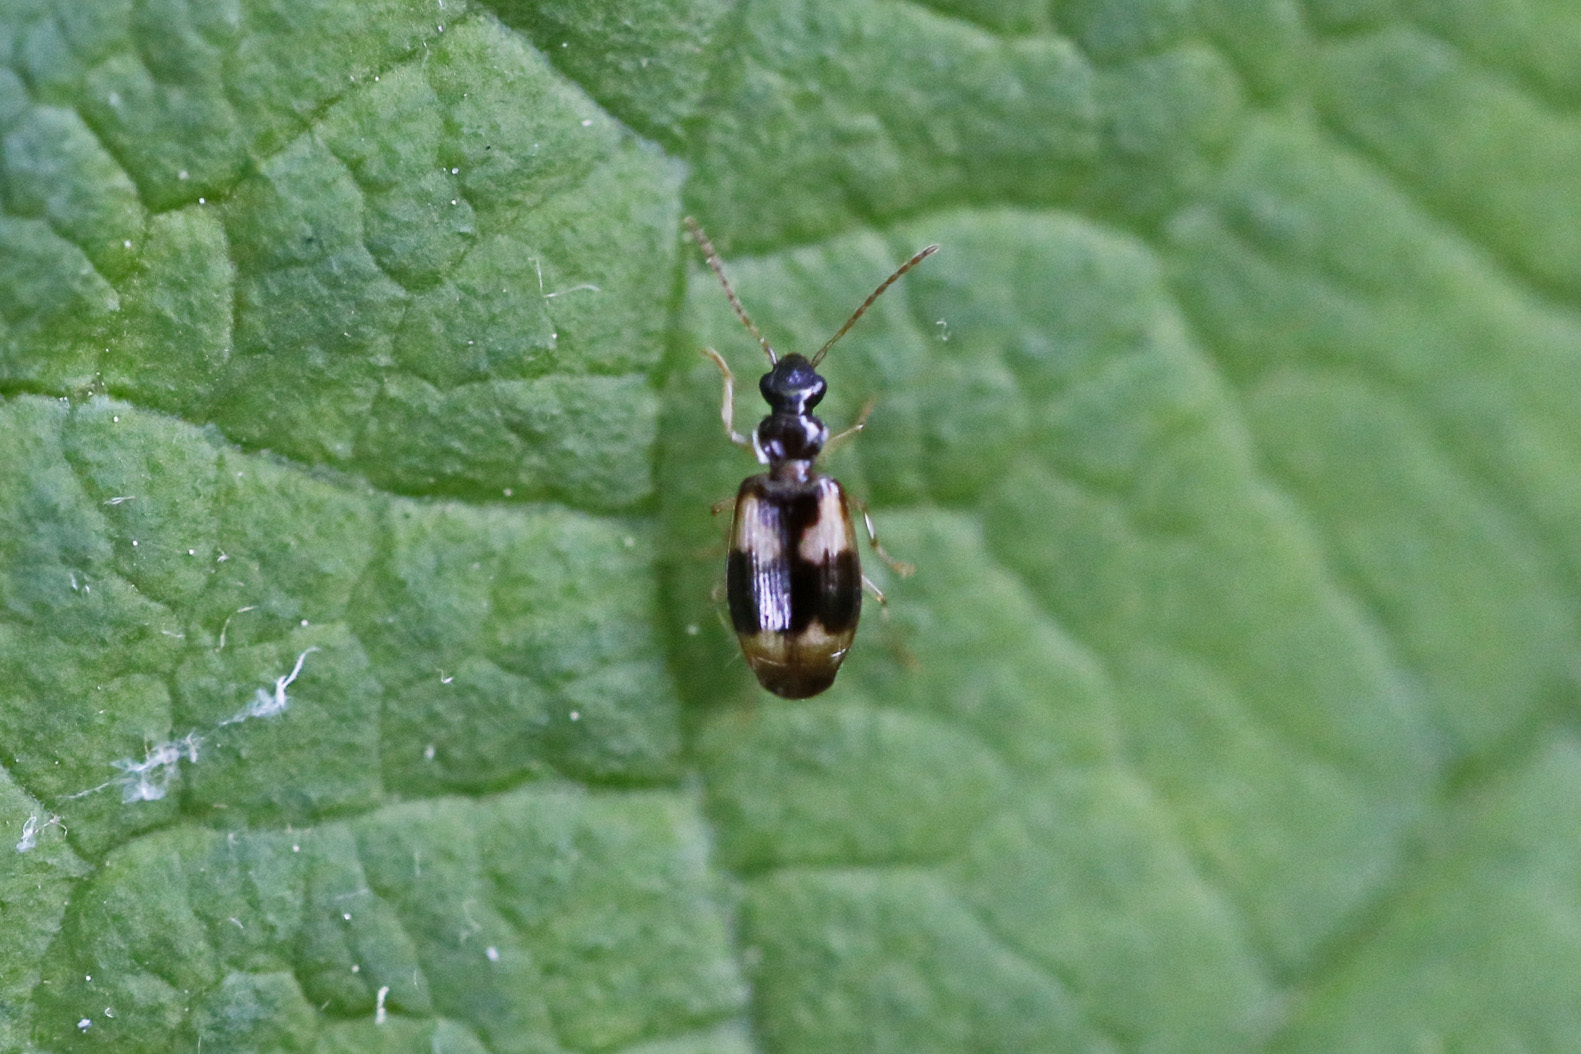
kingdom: Animalia
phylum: Arthropoda
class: Insecta
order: Coleoptera
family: Carabidae
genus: Lebia
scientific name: Lebia fuscata
